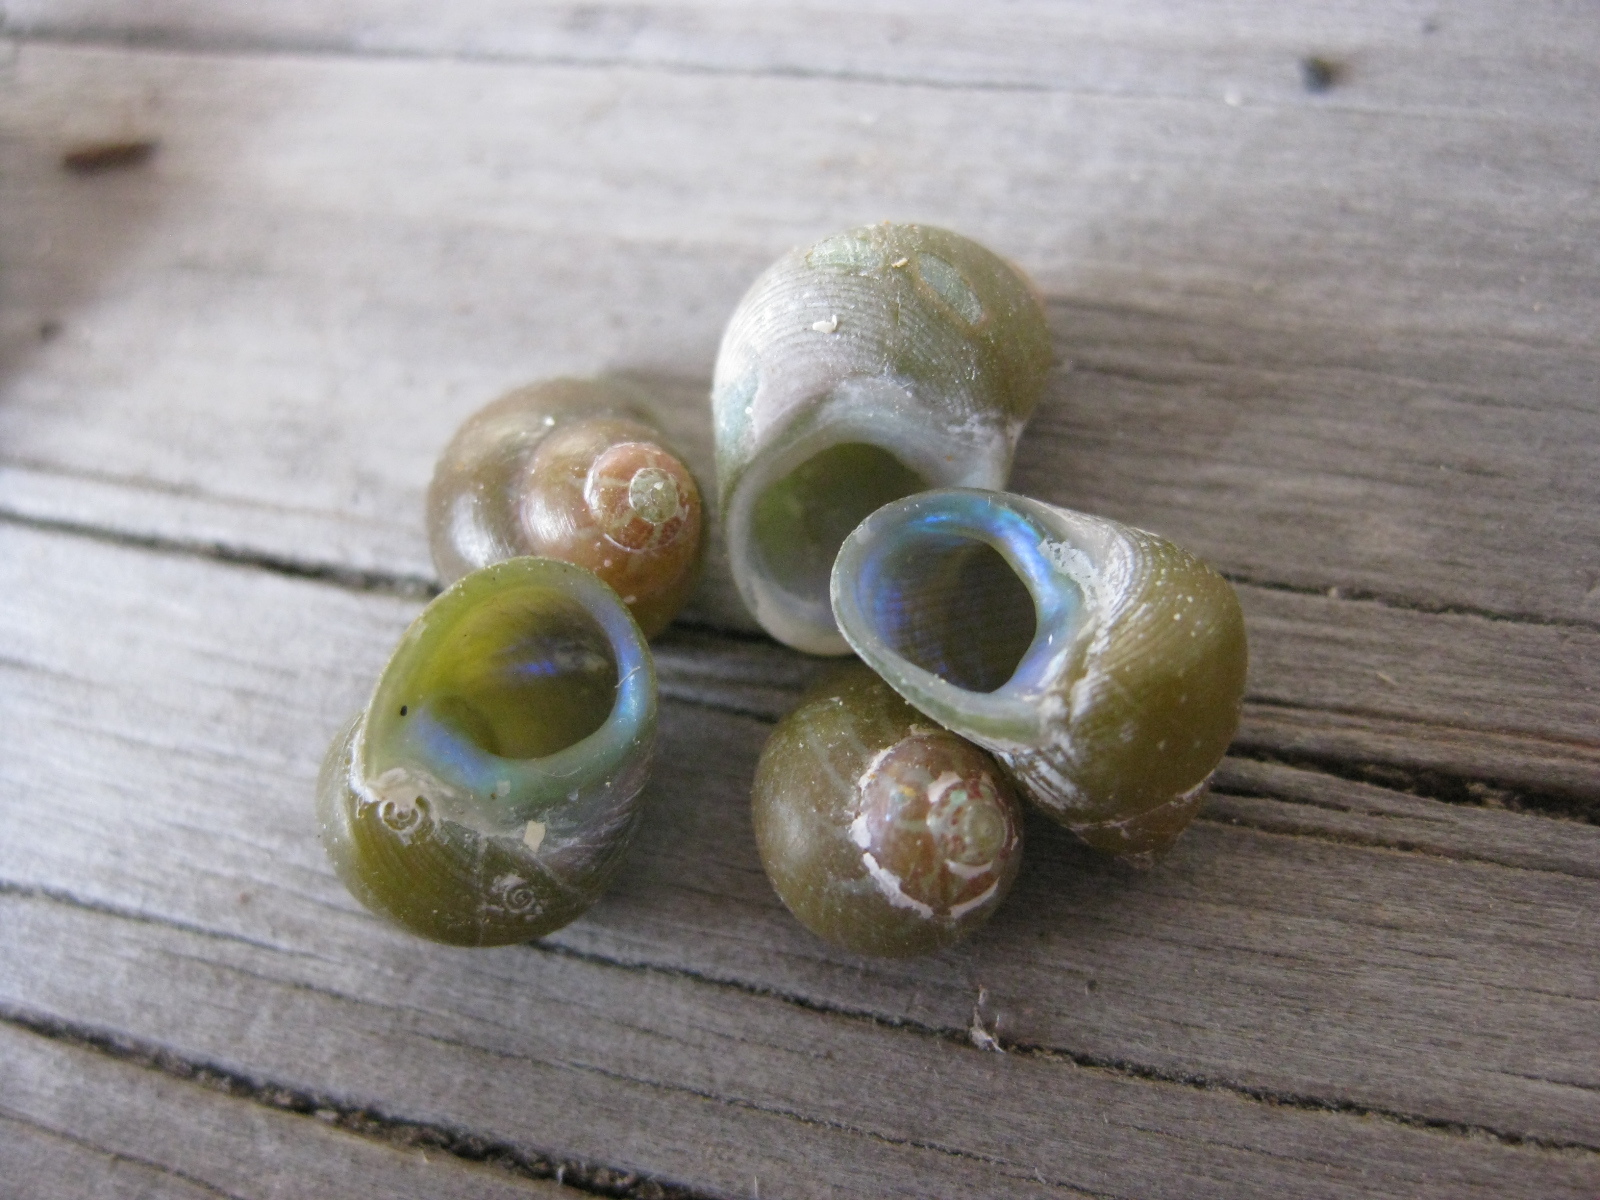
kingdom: Animalia
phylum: Mollusca
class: Gastropoda
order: Trochida
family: Trochidae
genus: Cantharidus
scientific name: Cantharidus dilatatus
